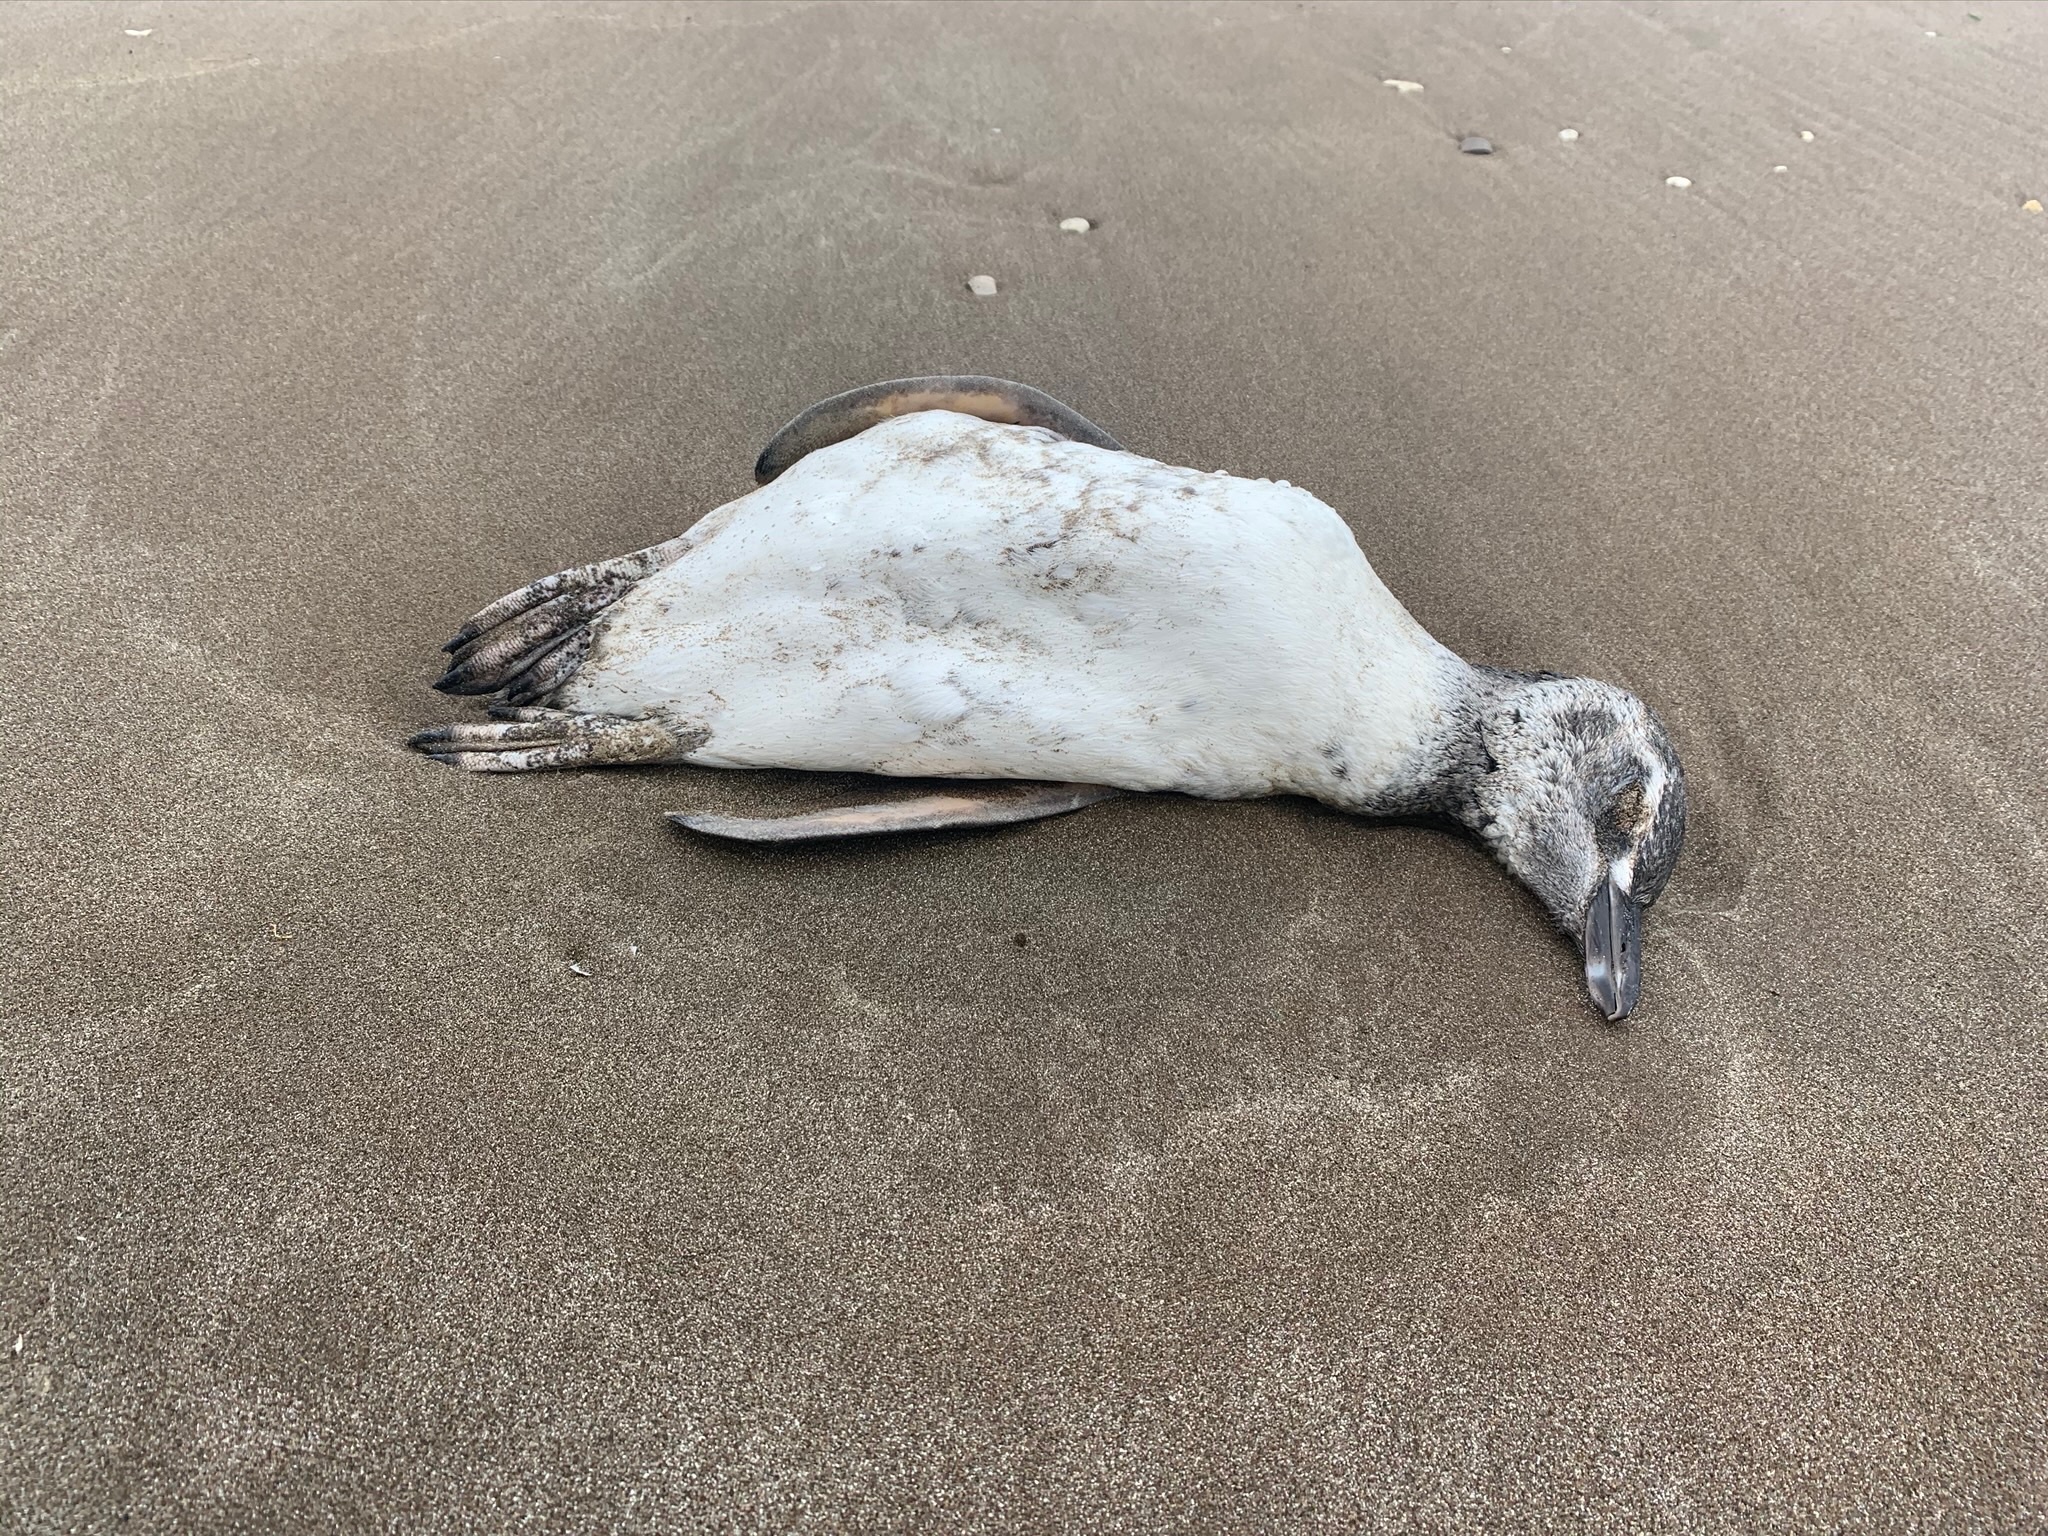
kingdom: Animalia
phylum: Chordata
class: Aves
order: Sphenisciformes
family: Spheniscidae
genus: Spheniscus
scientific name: Spheniscus magellanicus
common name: Magellanic penguin
